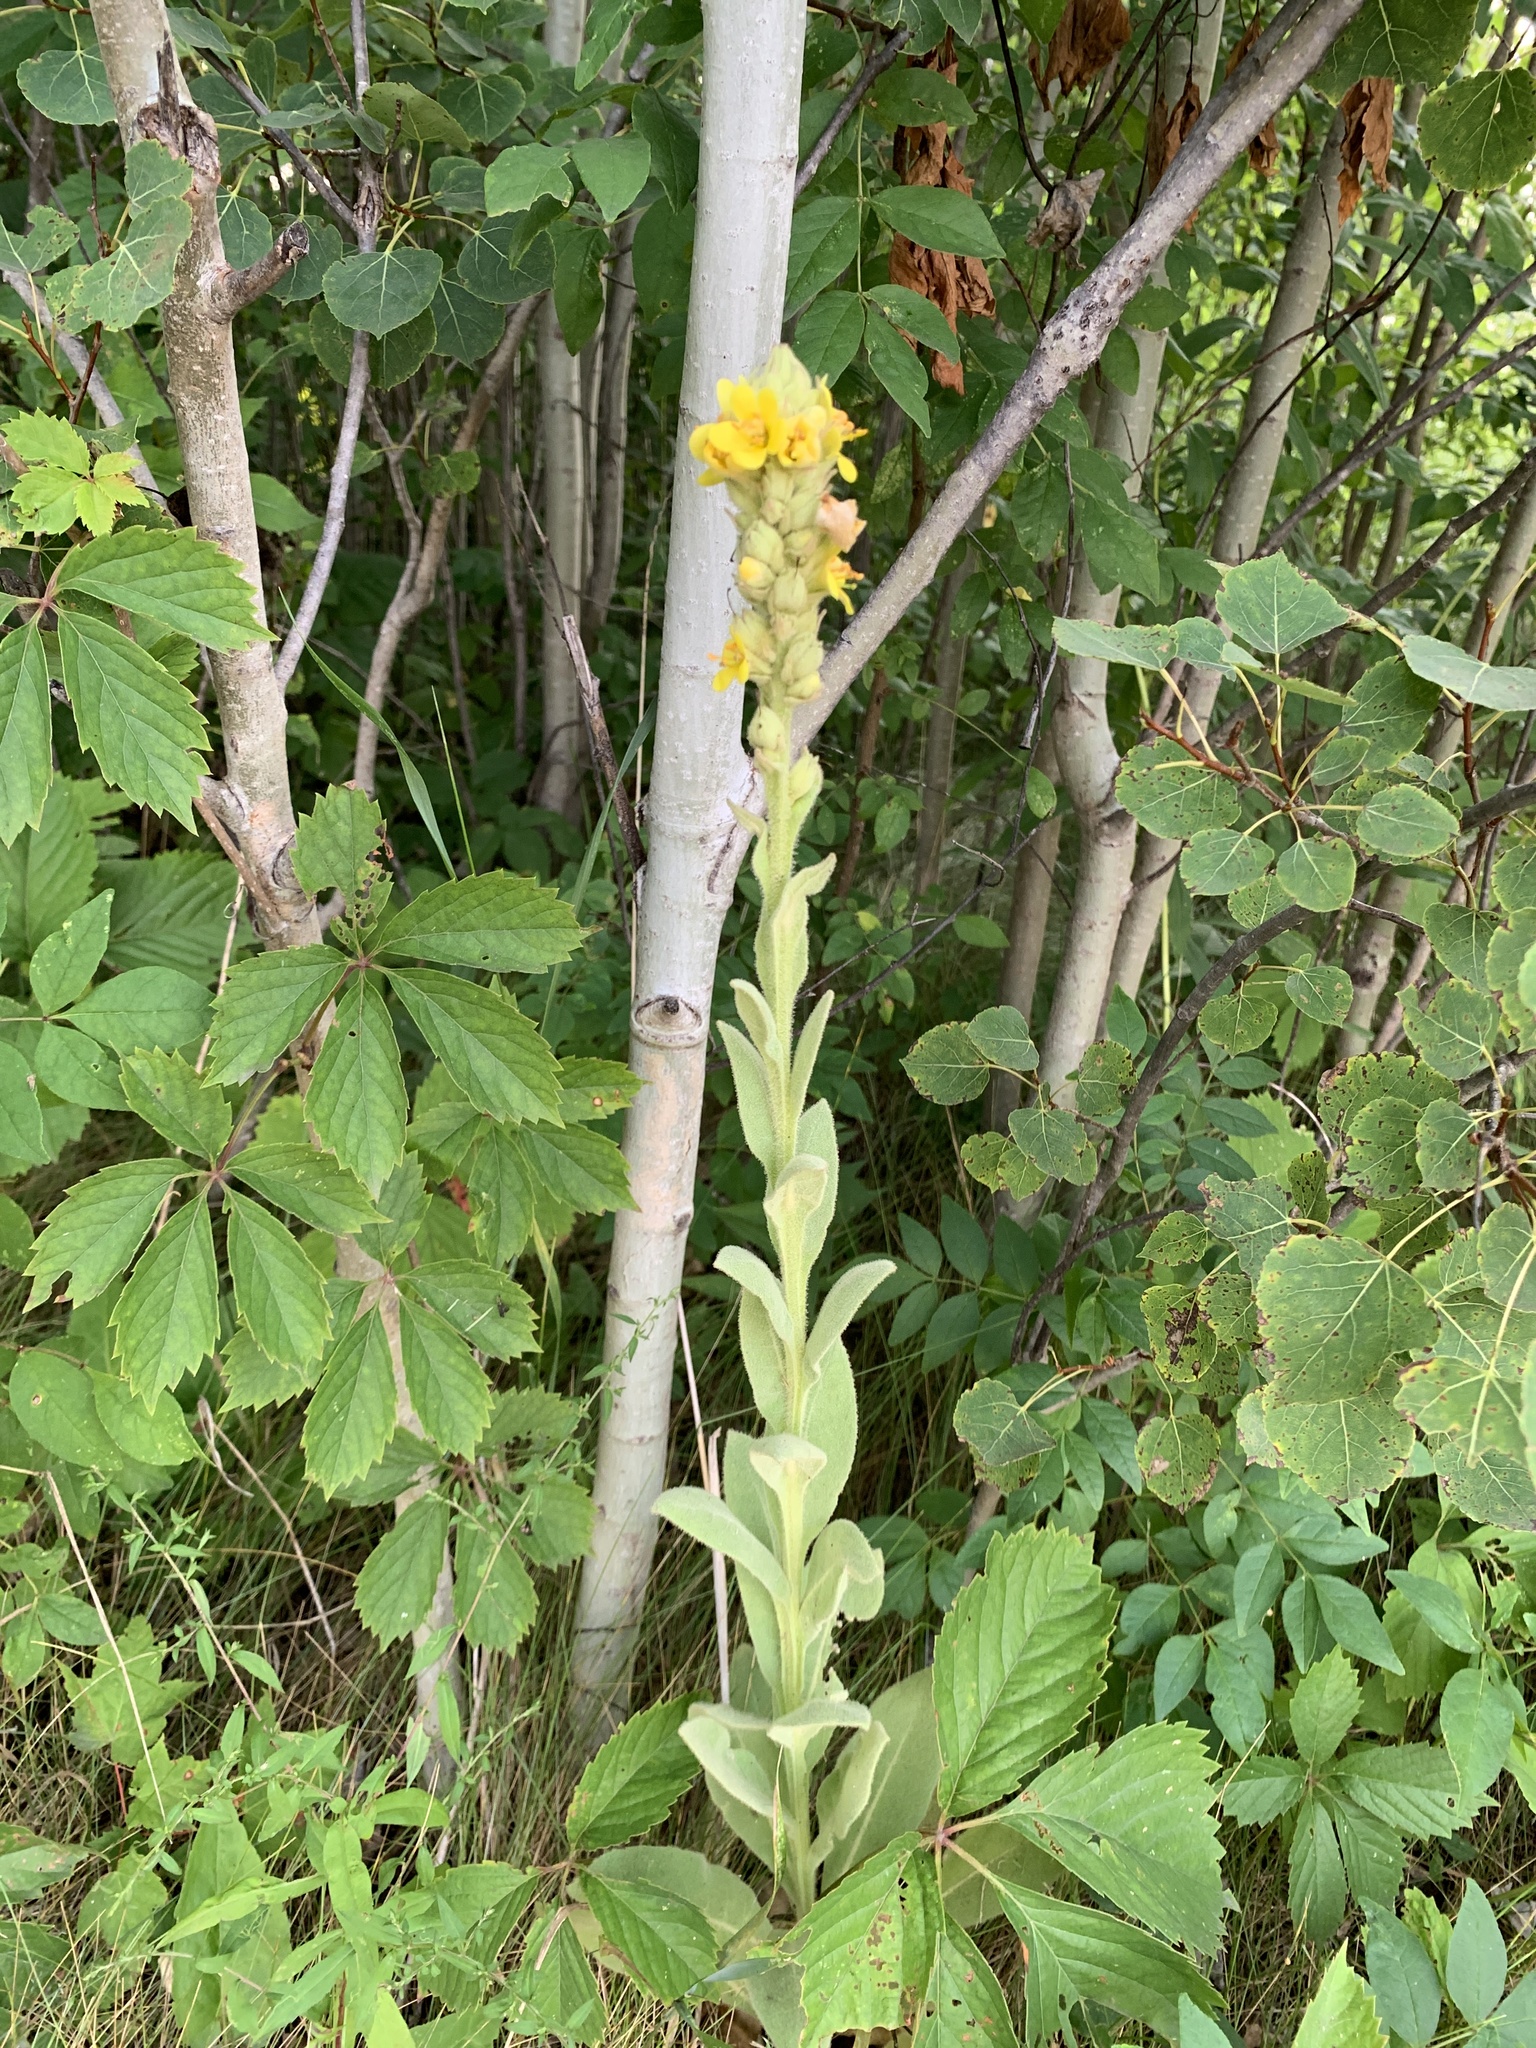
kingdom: Plantae
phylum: Tracheophyta
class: Magnoliopsida
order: Lamiales
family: Scrophulariaceae
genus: Verbascum
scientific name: Verbascum thapsus
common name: Common mullein
